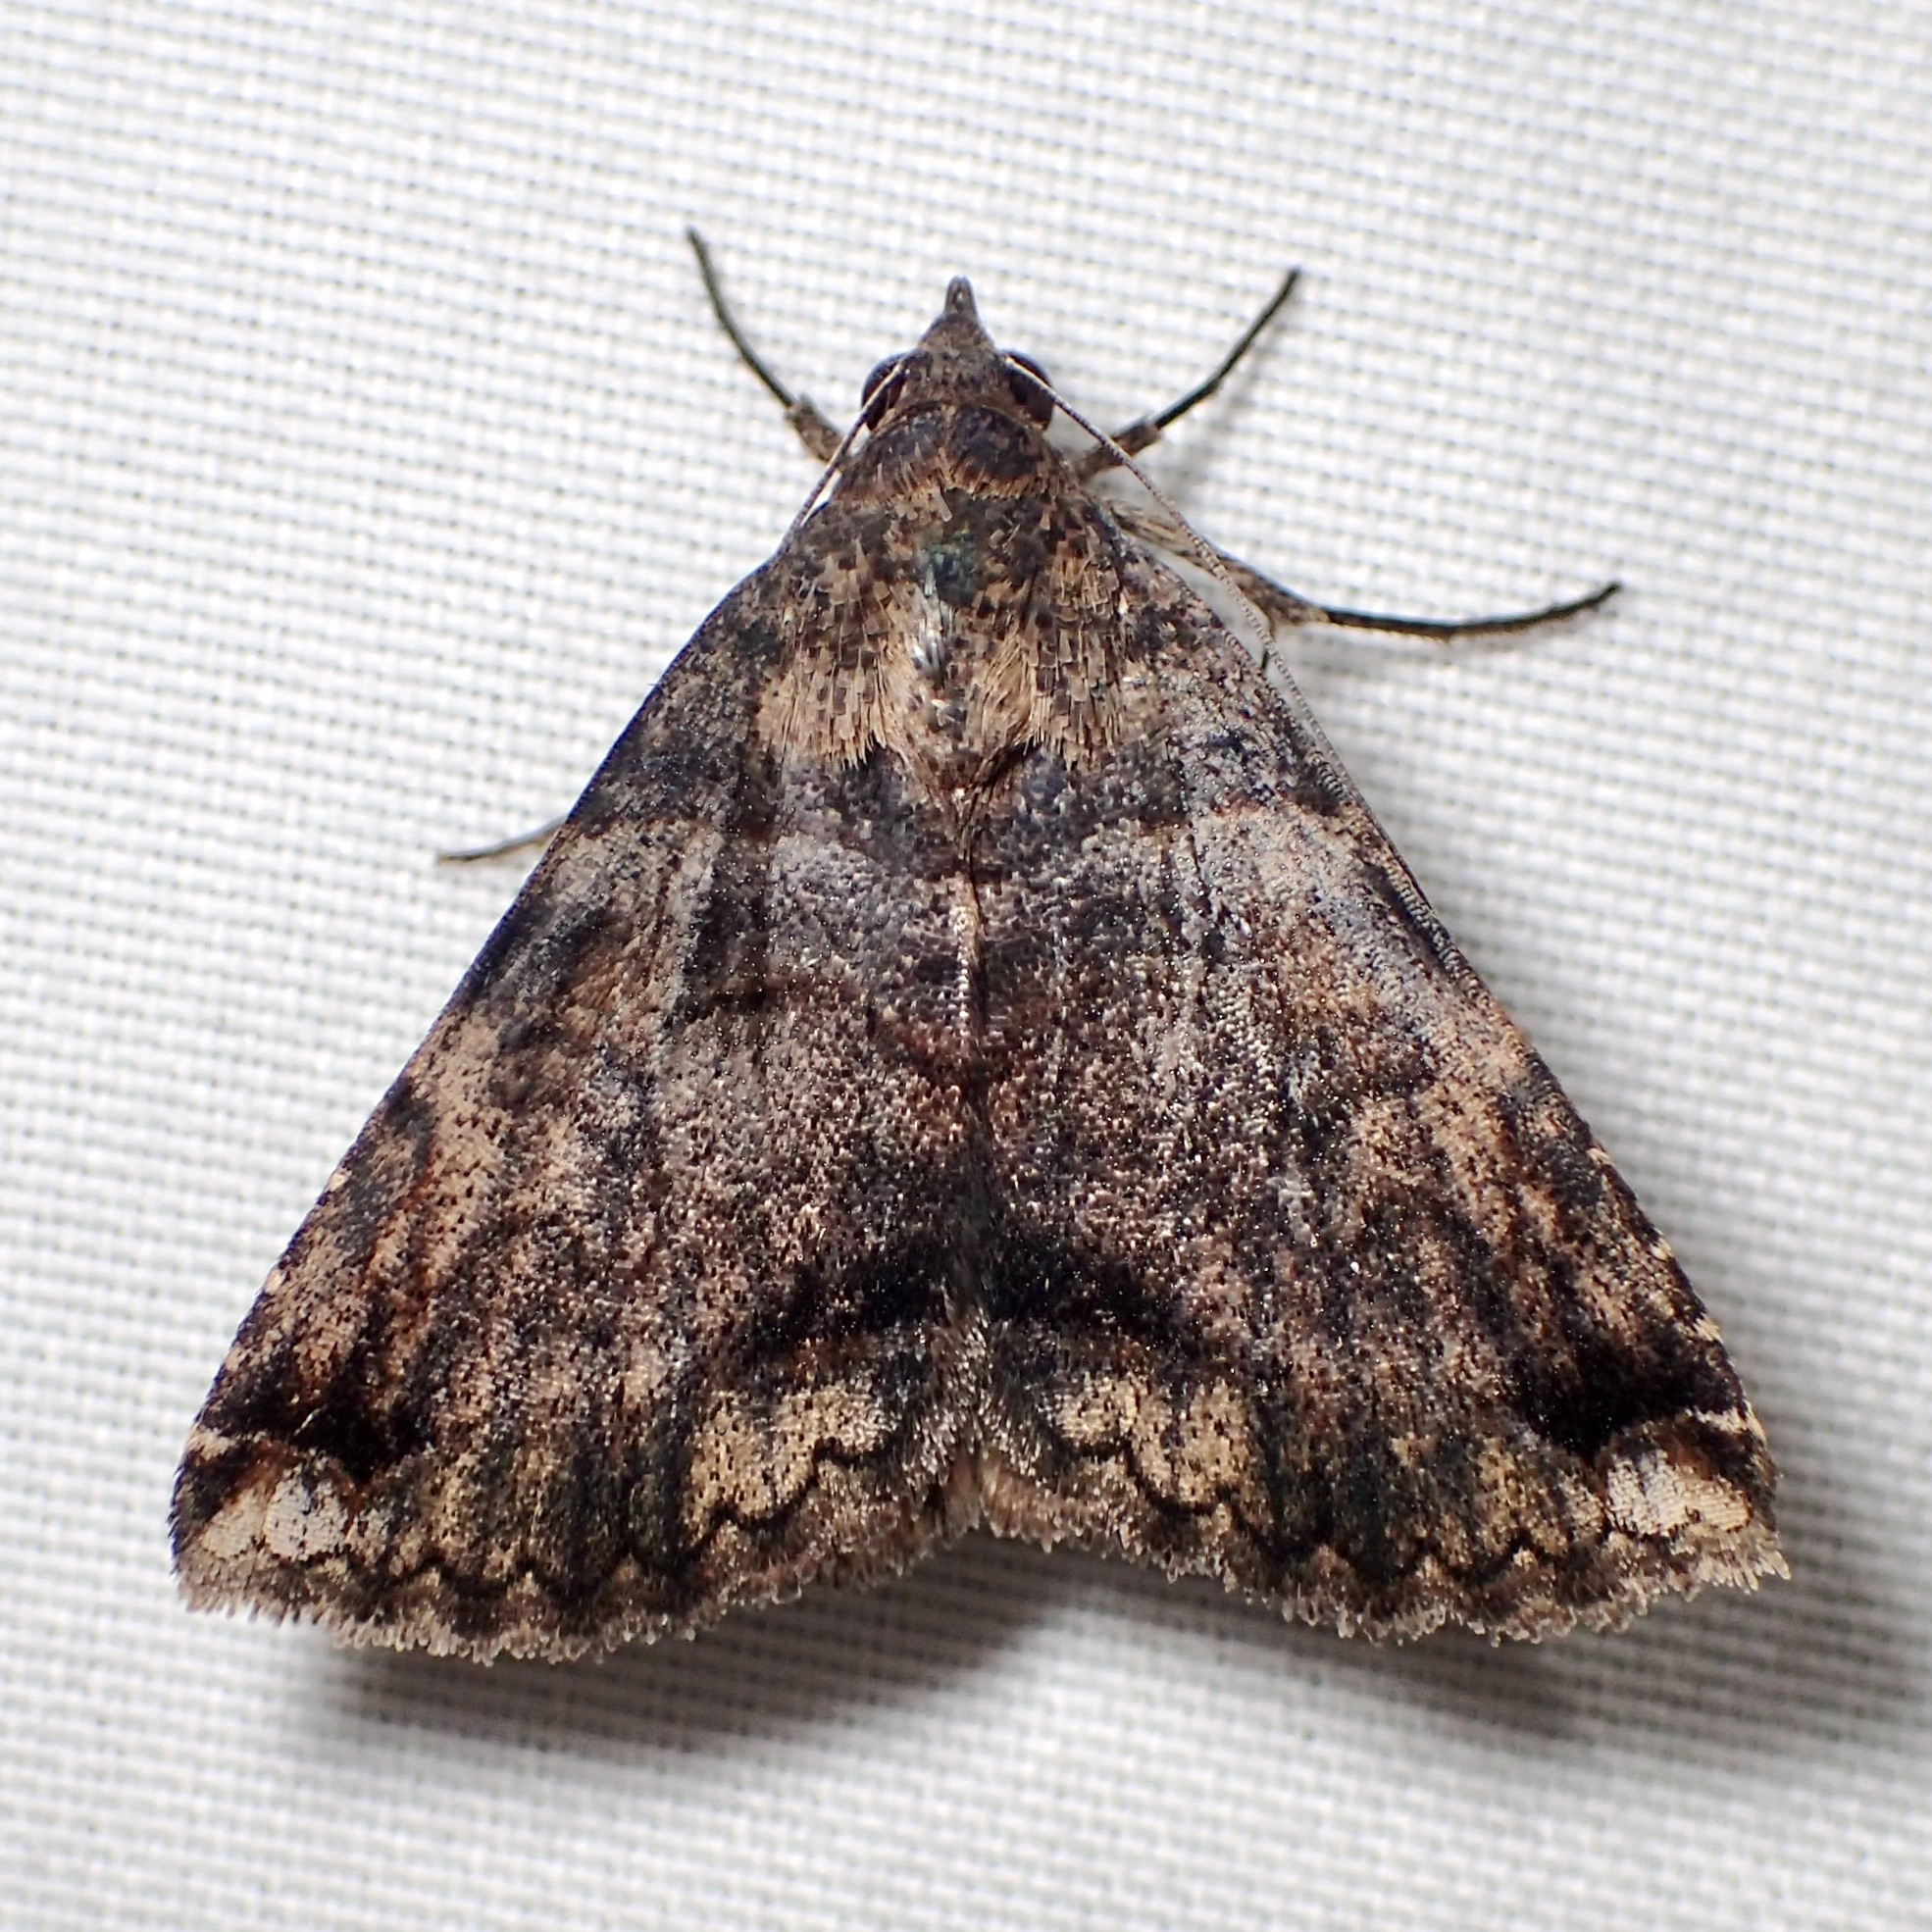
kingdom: Animalia
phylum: Arthropoda
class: Insecta
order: Lepidoptera
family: Erebidae
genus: Panula
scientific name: Panula inconstans
